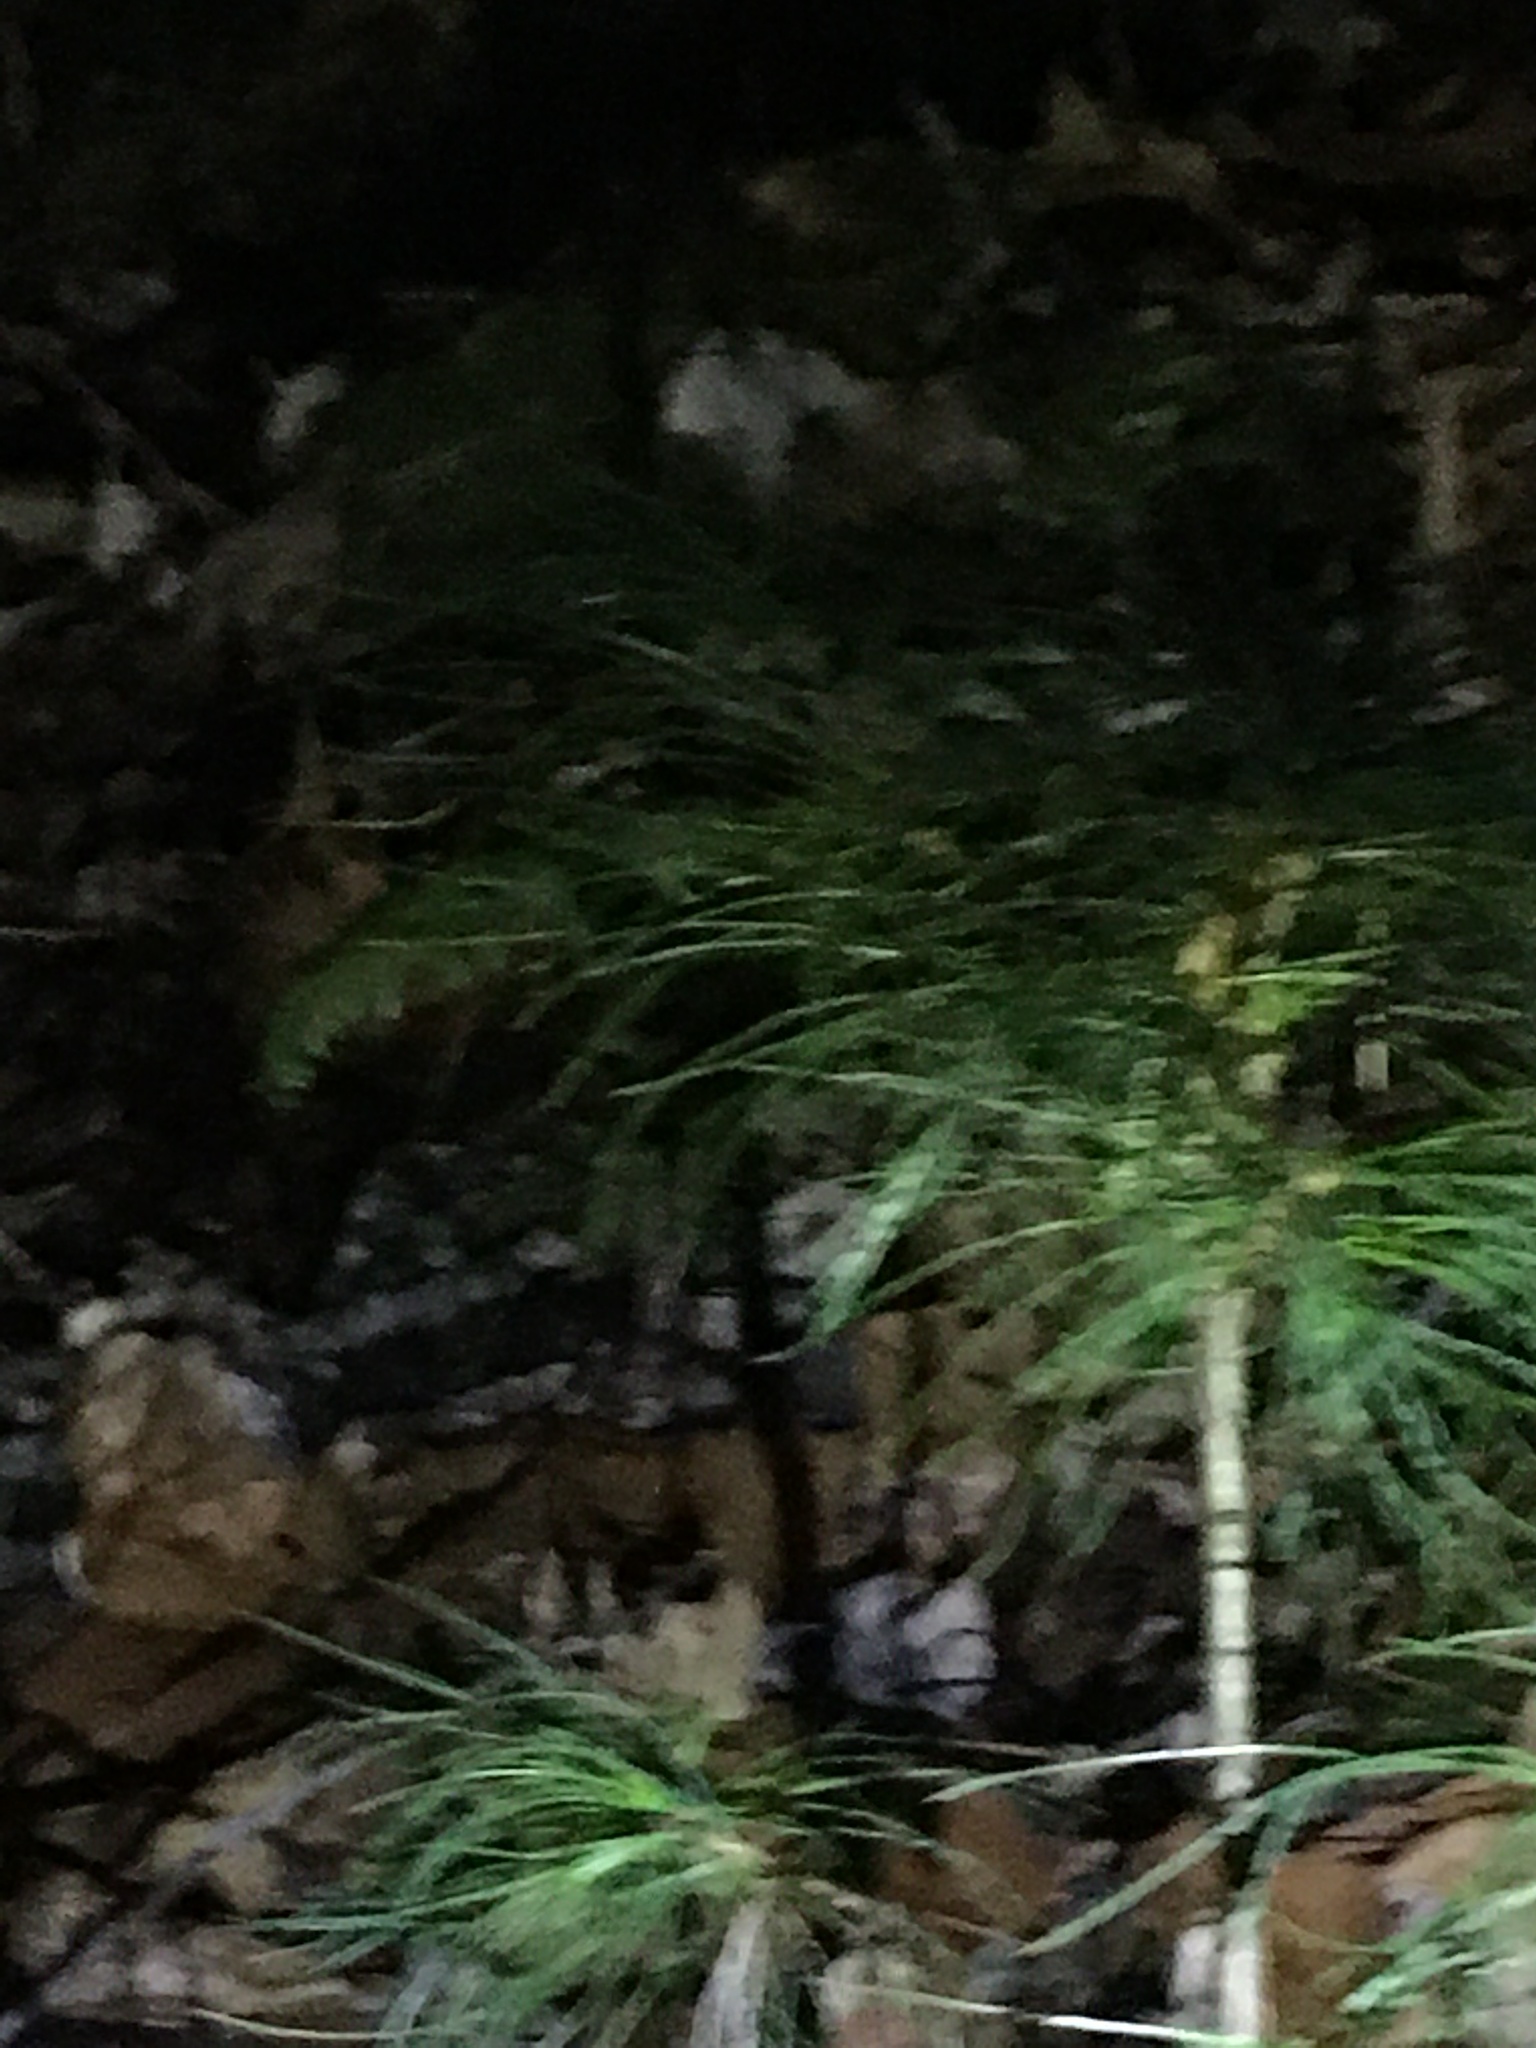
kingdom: Plantae
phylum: Tracheophyta
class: Pinopsida
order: Pinales
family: Pinaceae
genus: Pinus
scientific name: Pinus strobus
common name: Weymouth pine
